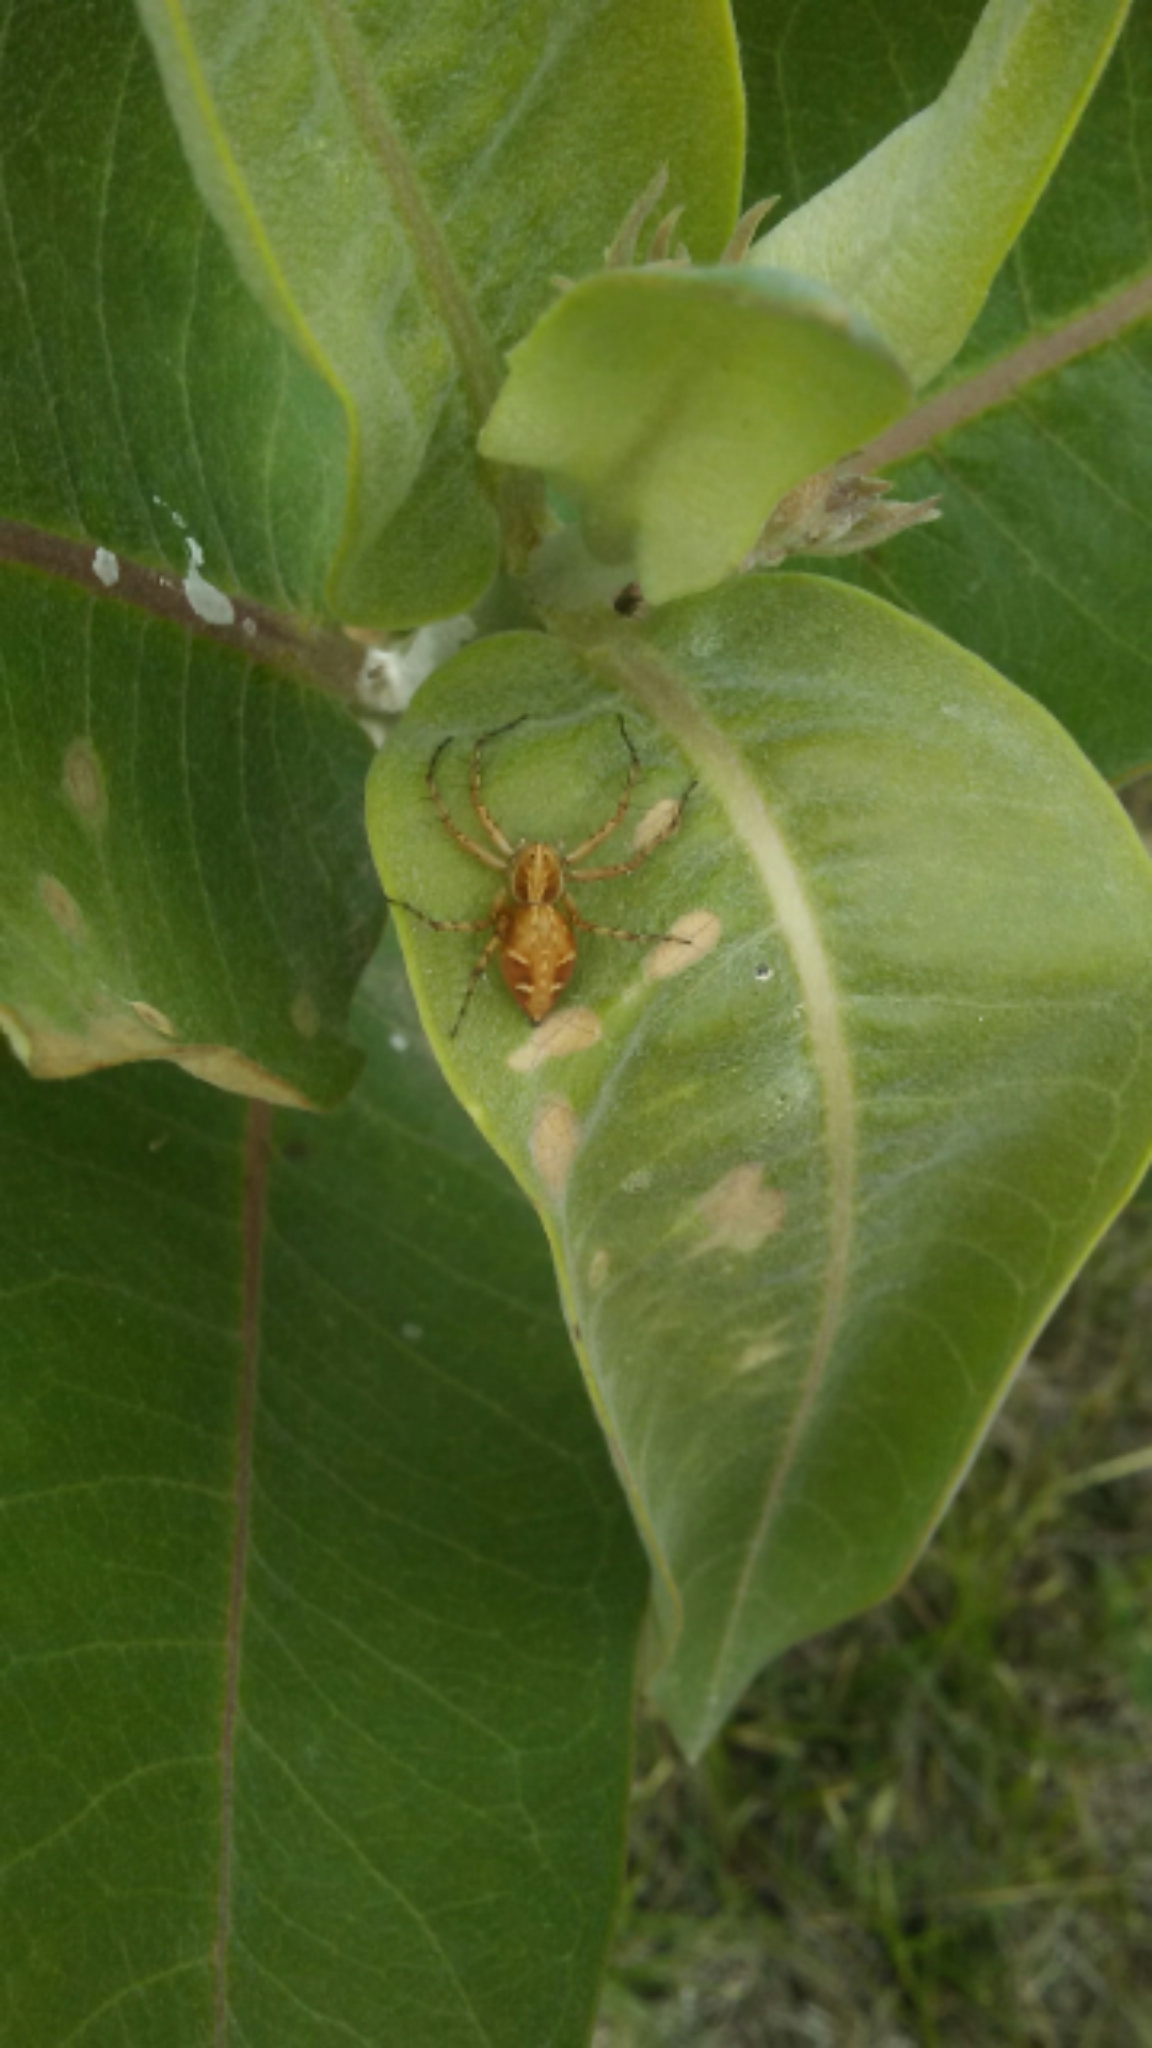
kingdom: Animalia
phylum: Arthropoda
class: Arachnida
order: Araneae
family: Oxyopidae
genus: Oxyopes
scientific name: Oxyopes scalaris
